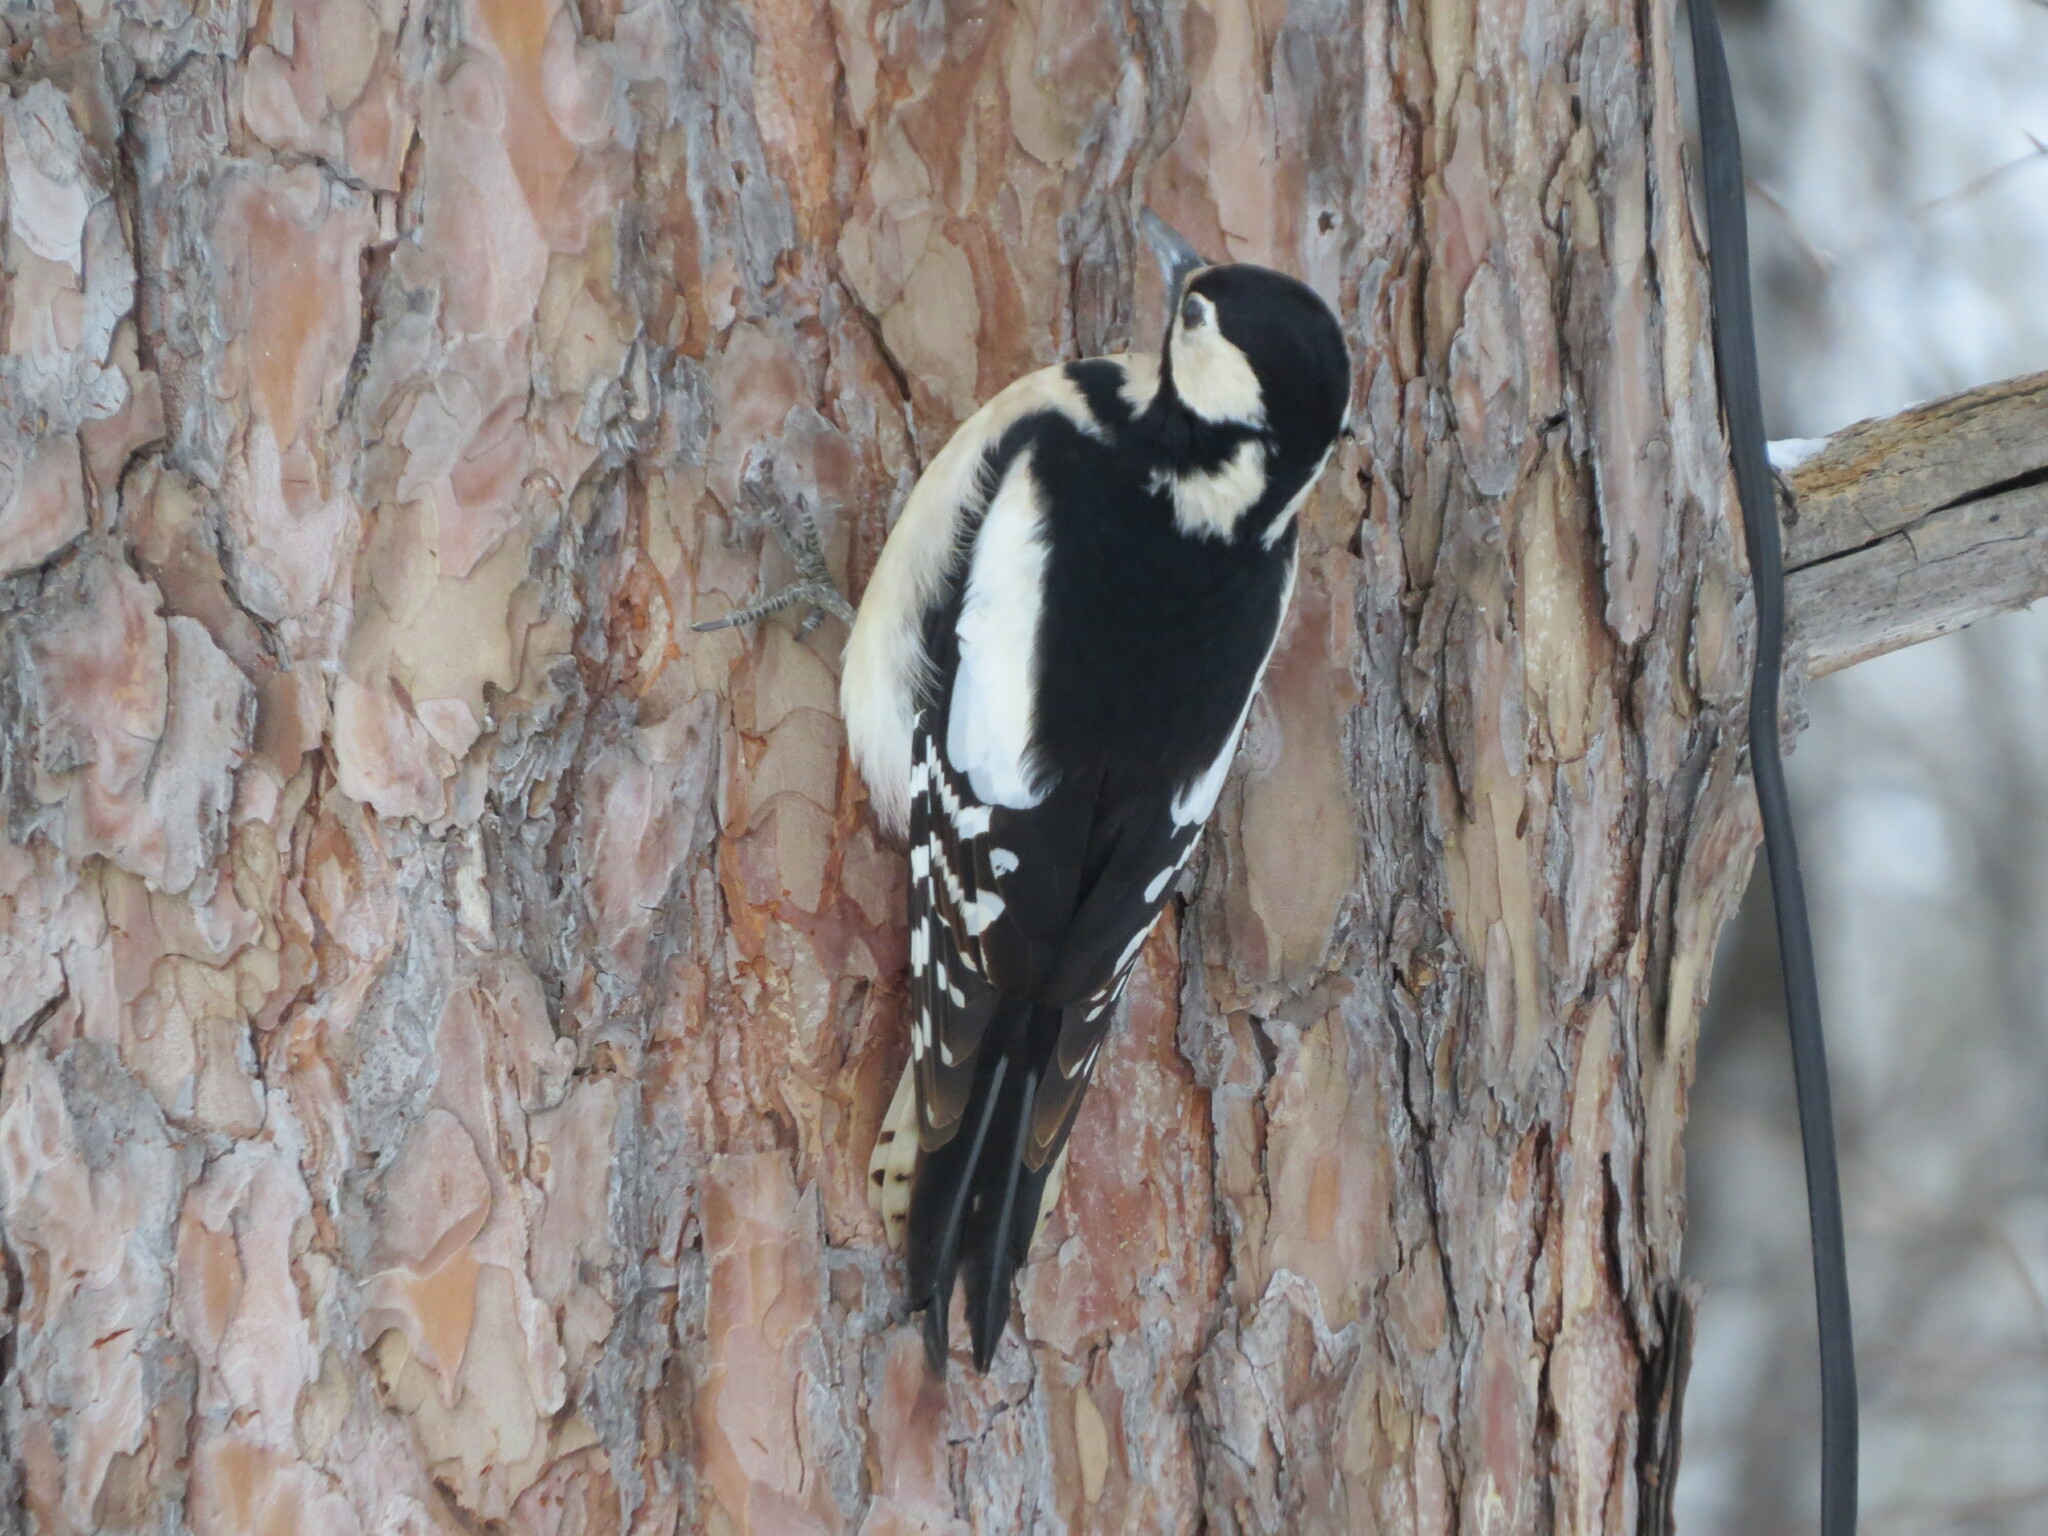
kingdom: Animalia
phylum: Chordata
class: Aves
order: Piciformes
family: Picidae
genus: Dendrocopos
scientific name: Dendrocopos major
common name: Great spotted woodpecker
